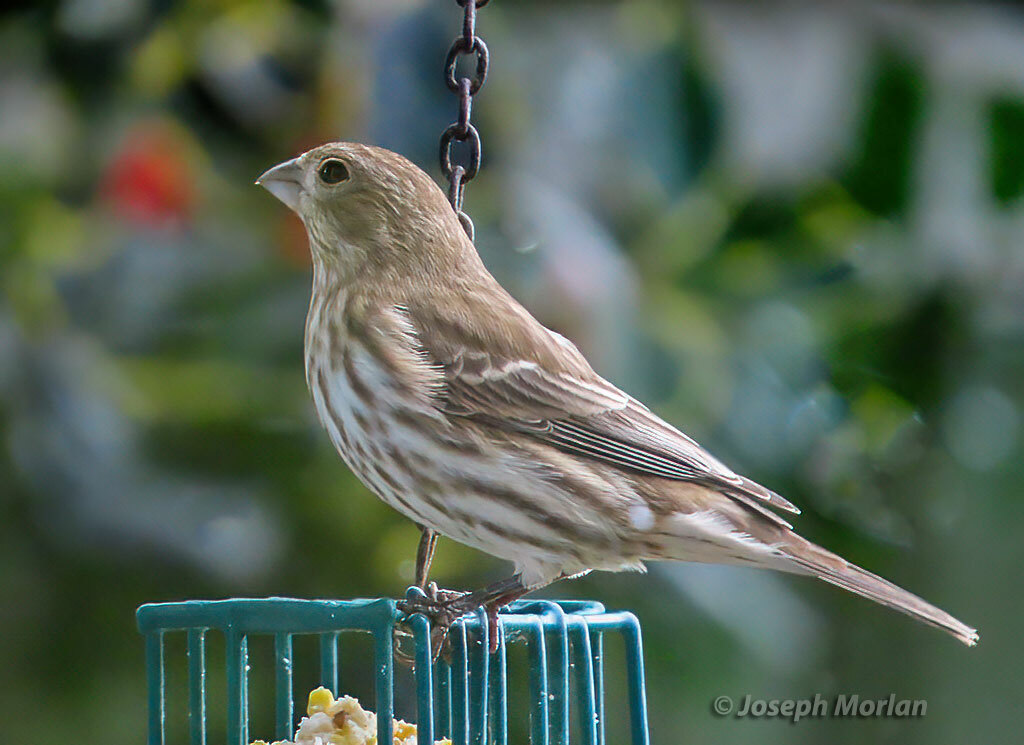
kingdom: Animalia
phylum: Chordata
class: Aves
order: Passeriformes
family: Fringillidae
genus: Haemorhous
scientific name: Haemorhous mexicanus
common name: House finch
